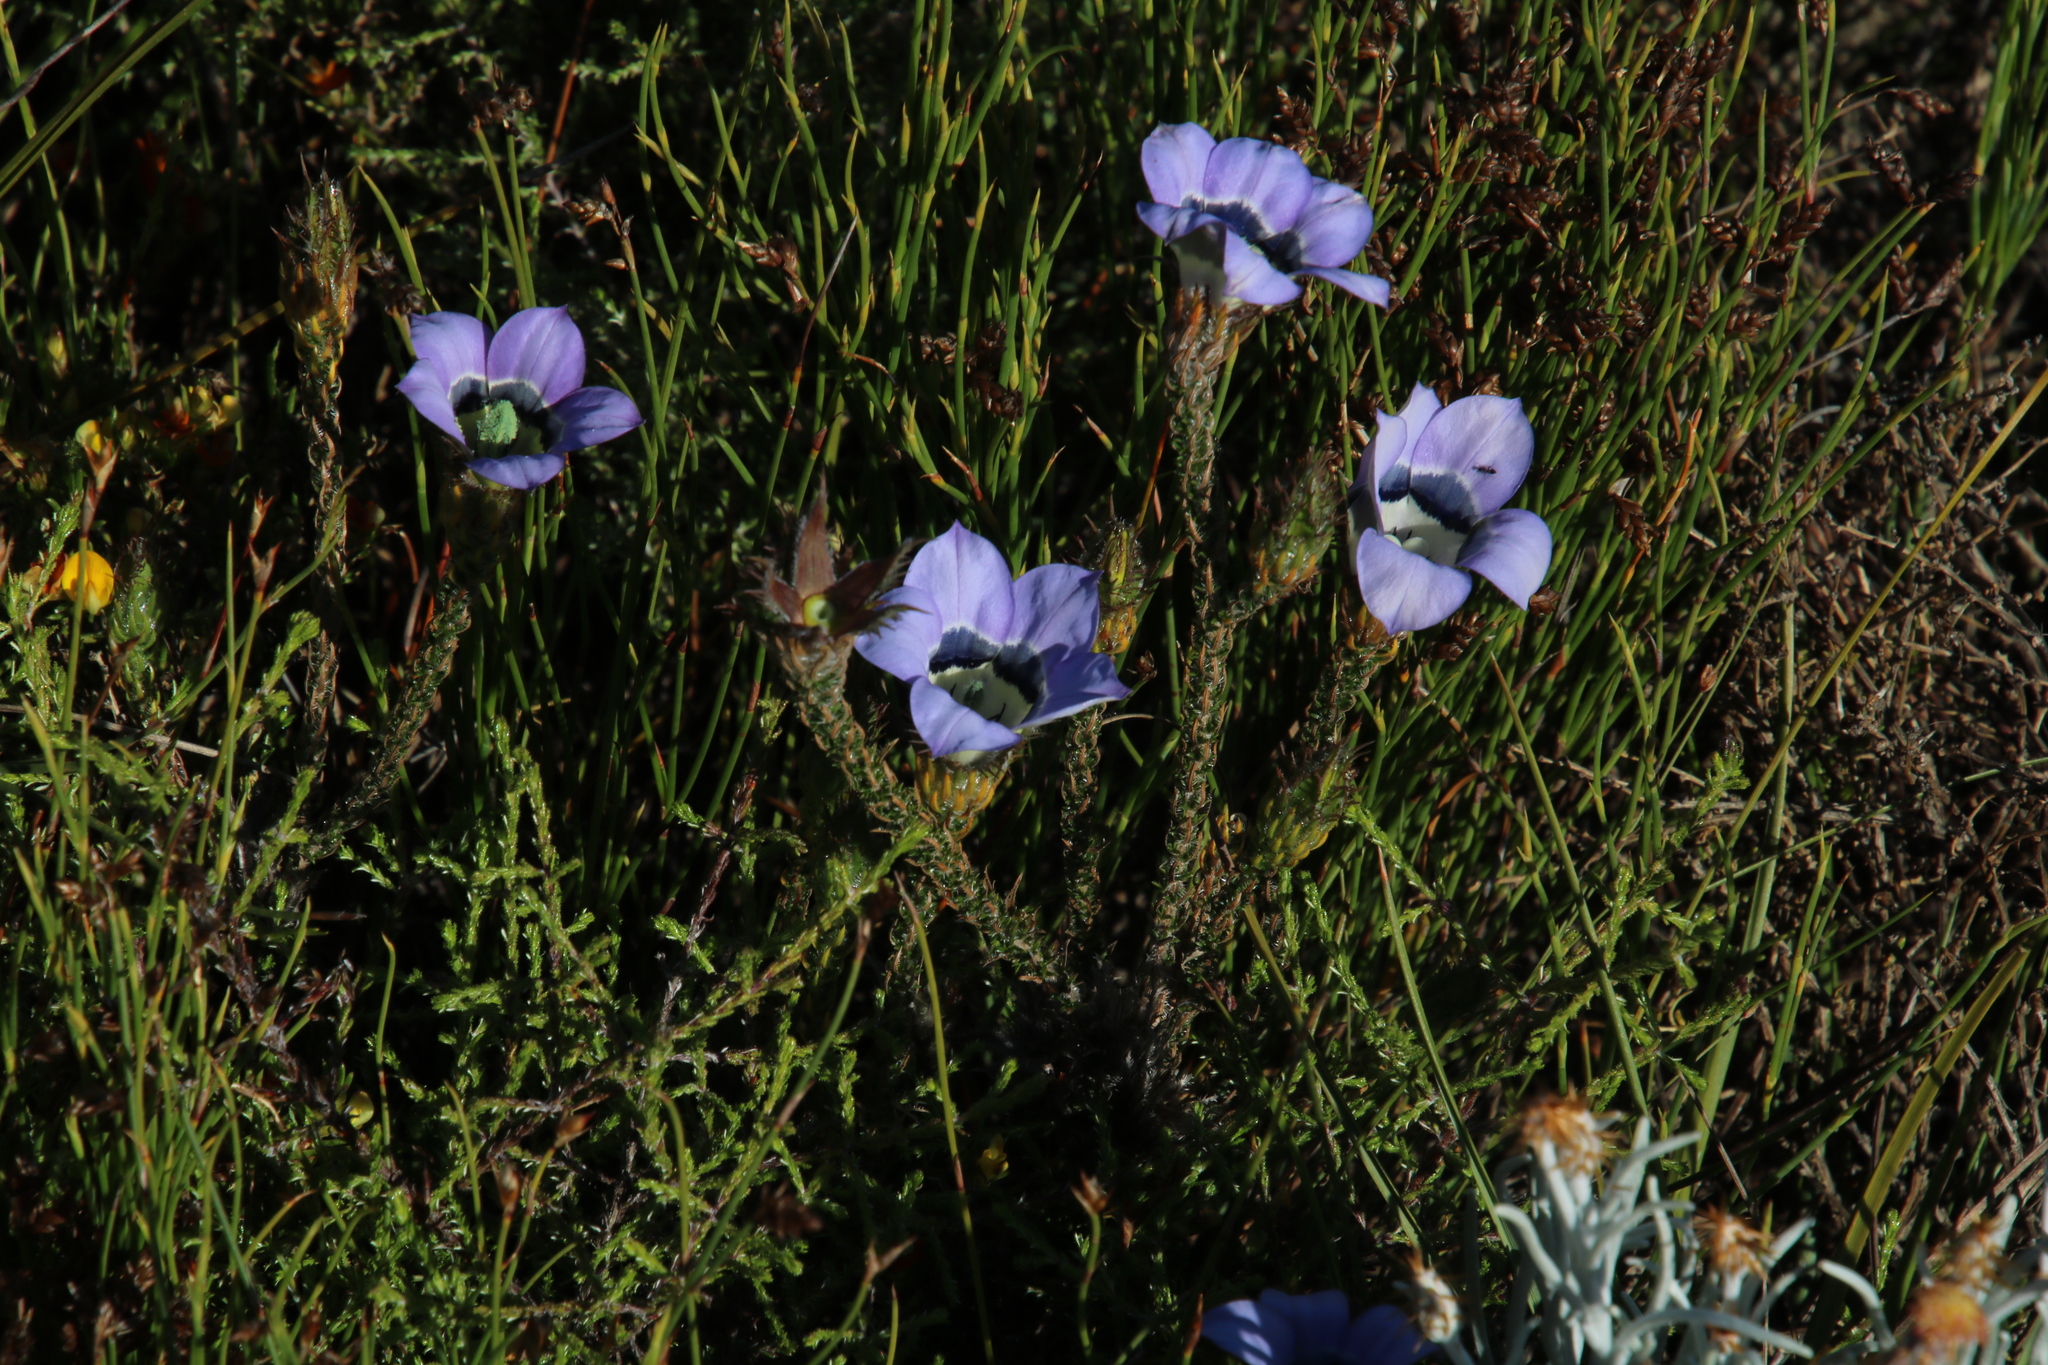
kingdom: Plantae
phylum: Tracheophyta
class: Magnoliopsida
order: Asterales
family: Campanulaceae
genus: Roella
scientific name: Roella ciliata
